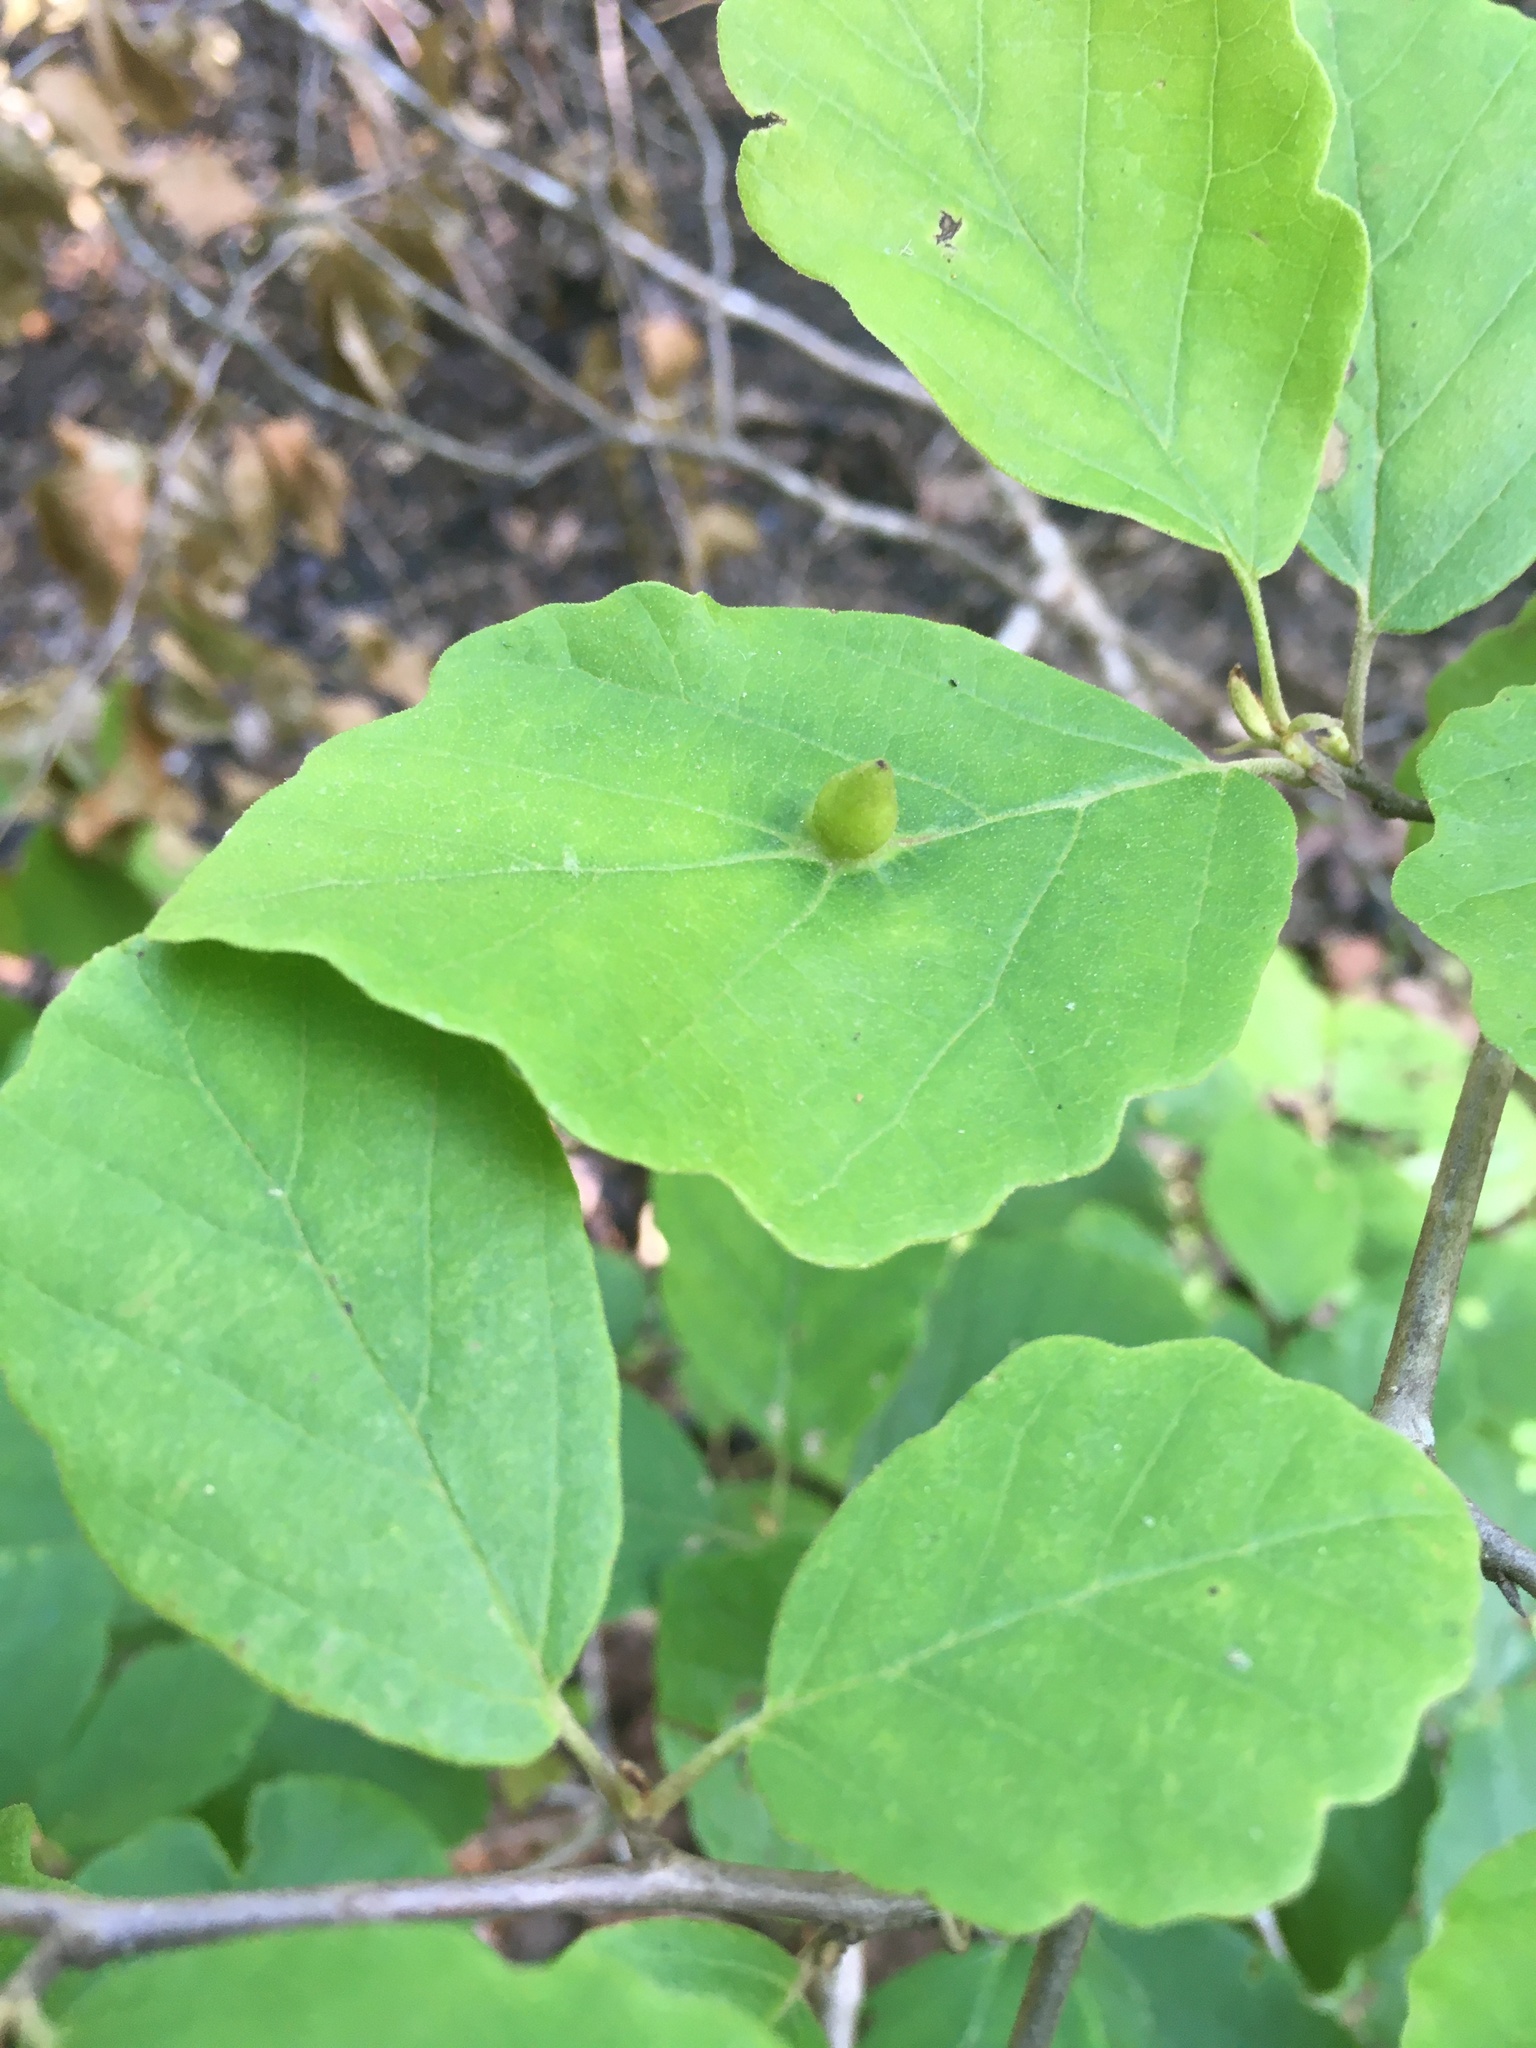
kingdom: Animalia
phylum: Arthropoda
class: Insecta
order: Hemiptera
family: Aphididae
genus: Hormaphis
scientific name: Hormaphis hamamelidis
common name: Witch-hazel cone gall aphid
